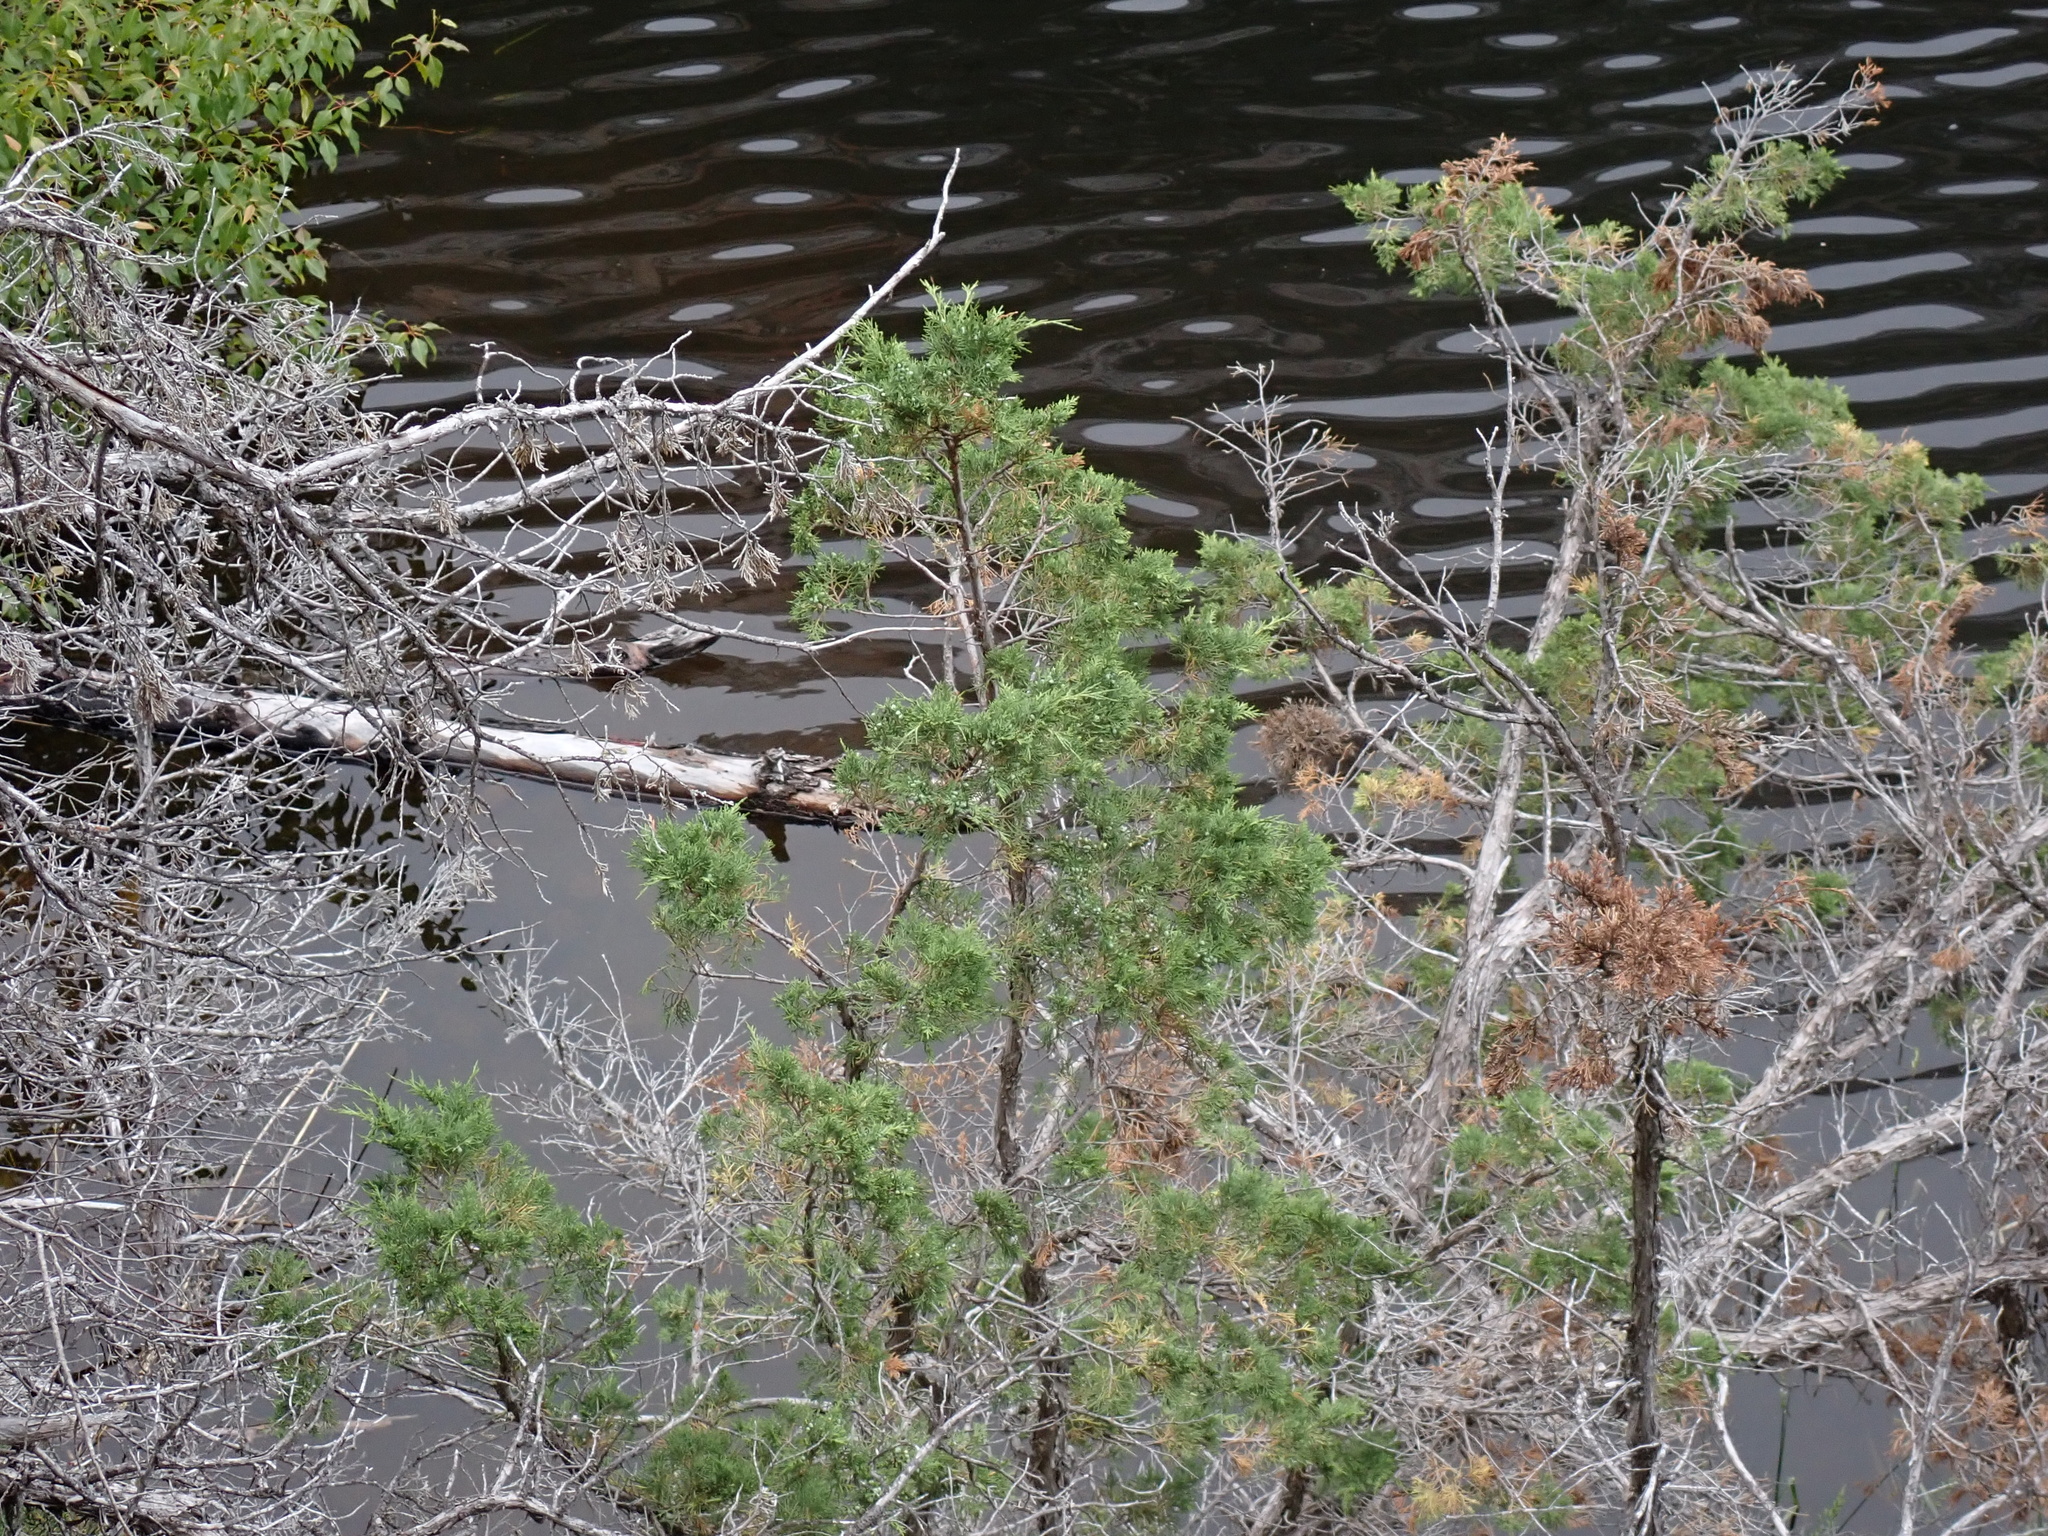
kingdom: Plantae
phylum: Tracheophyta
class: Pinopsida
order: Pinales
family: Cupressaceae
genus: Juniperus
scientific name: Juniperus scopulorum
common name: Rocky mountain juniper
